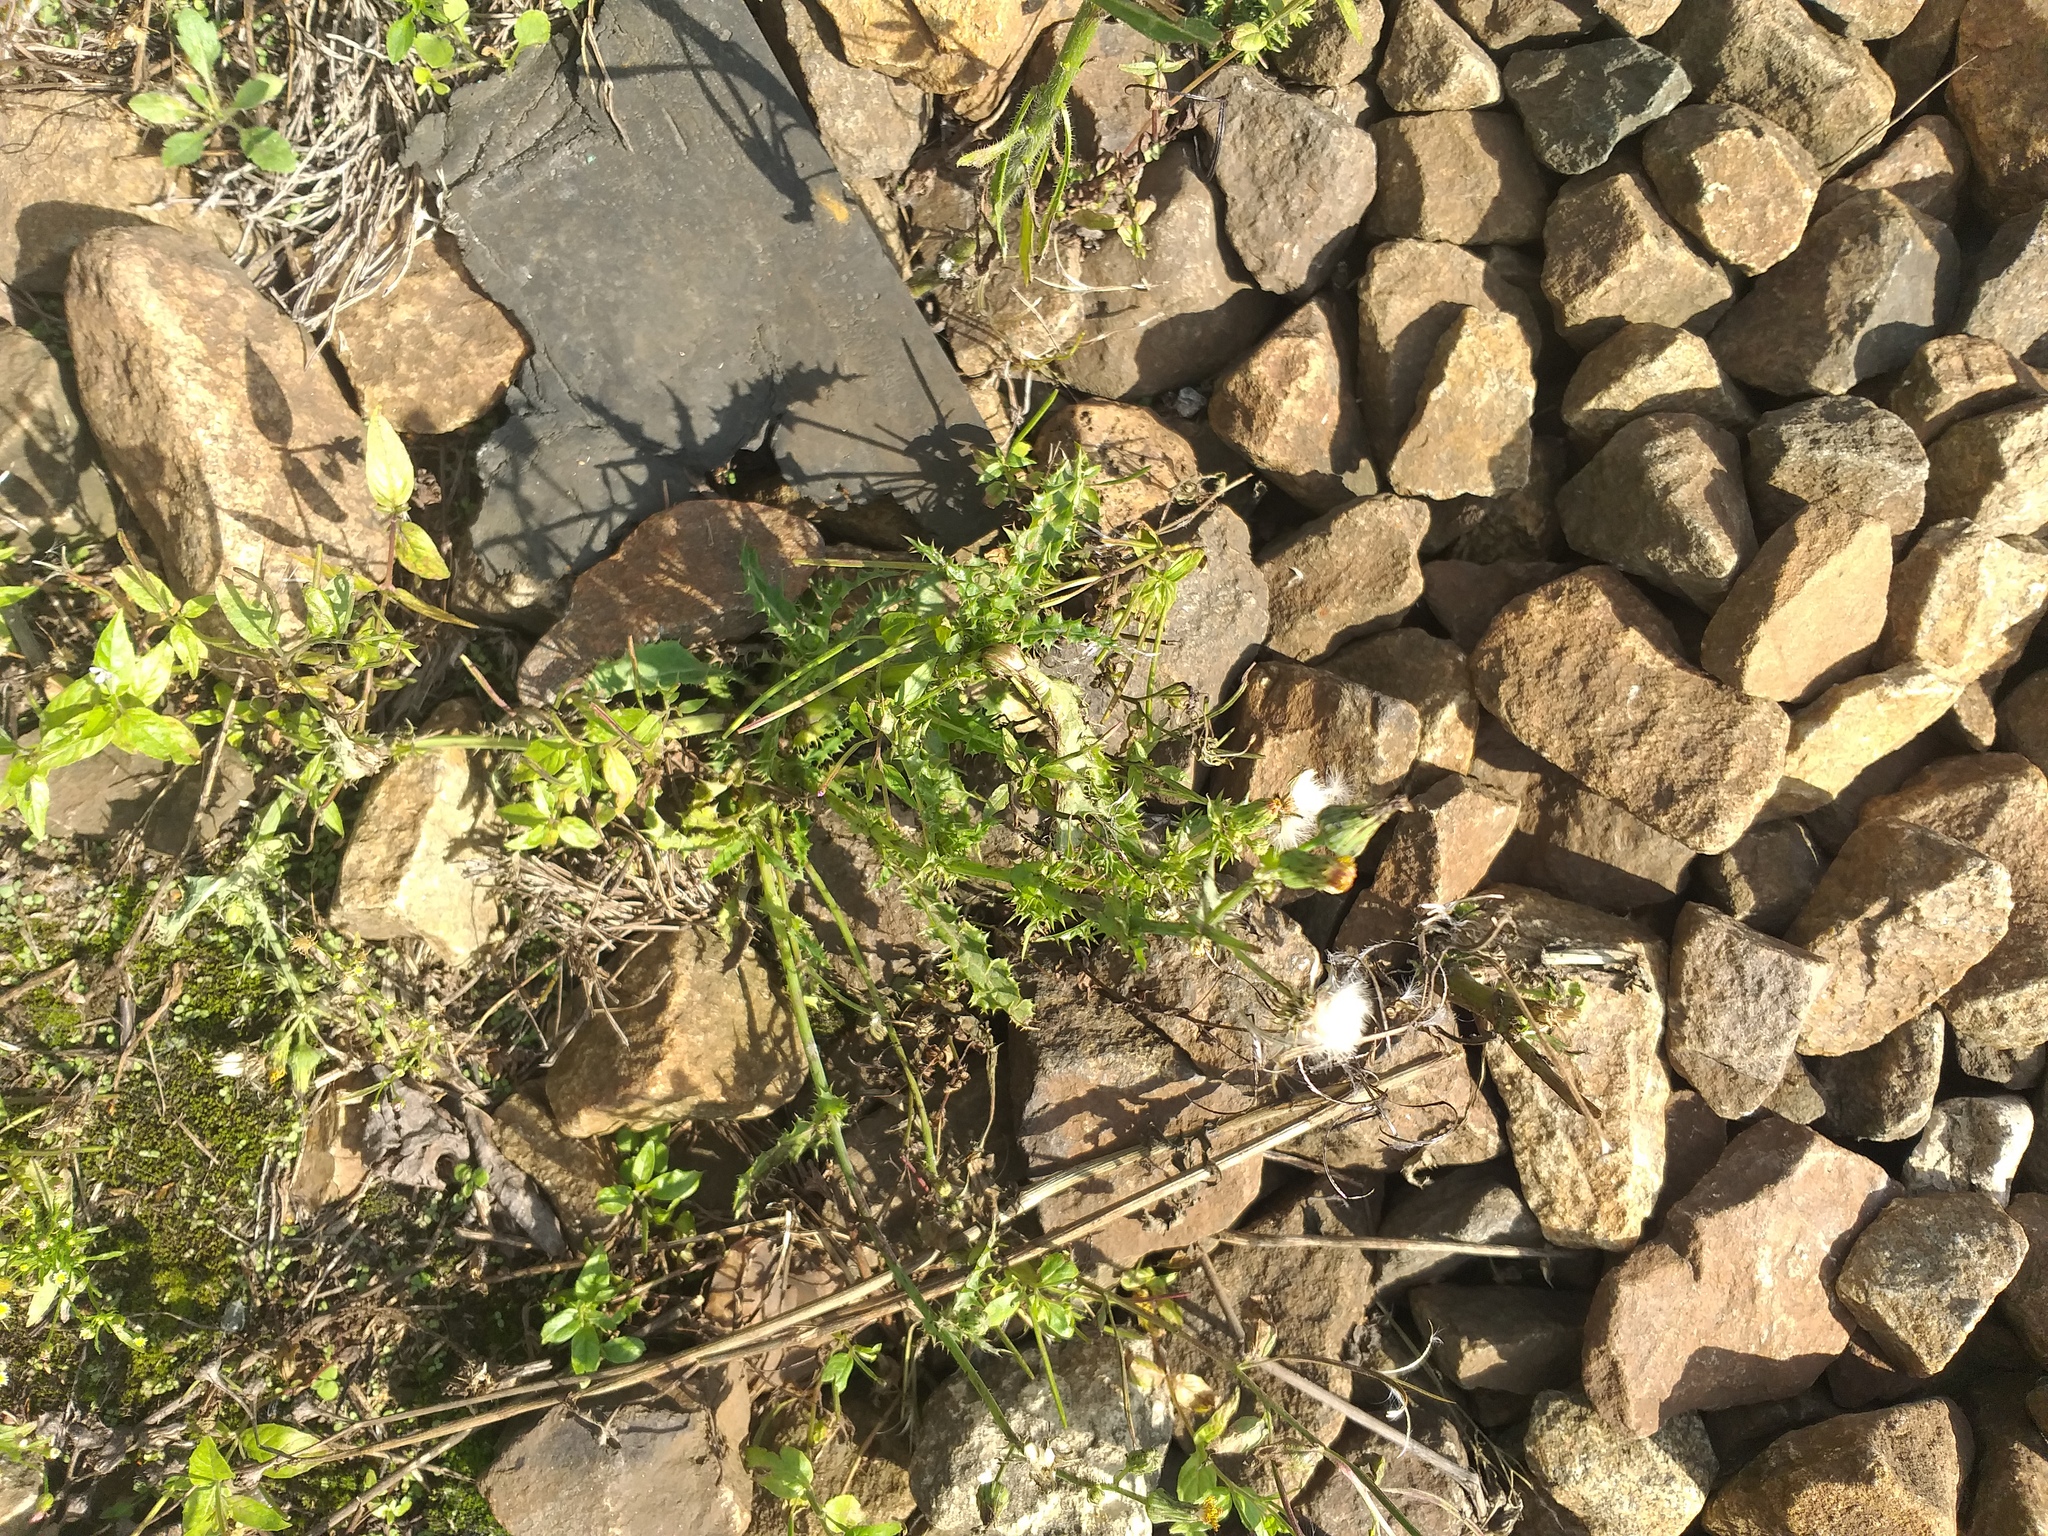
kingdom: Plantae
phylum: Tracheophyta
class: Magnoliopsida
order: Asterales
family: Asteraceae
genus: Sonchus
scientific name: Sonchus asper
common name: Prickly sow-thistle
